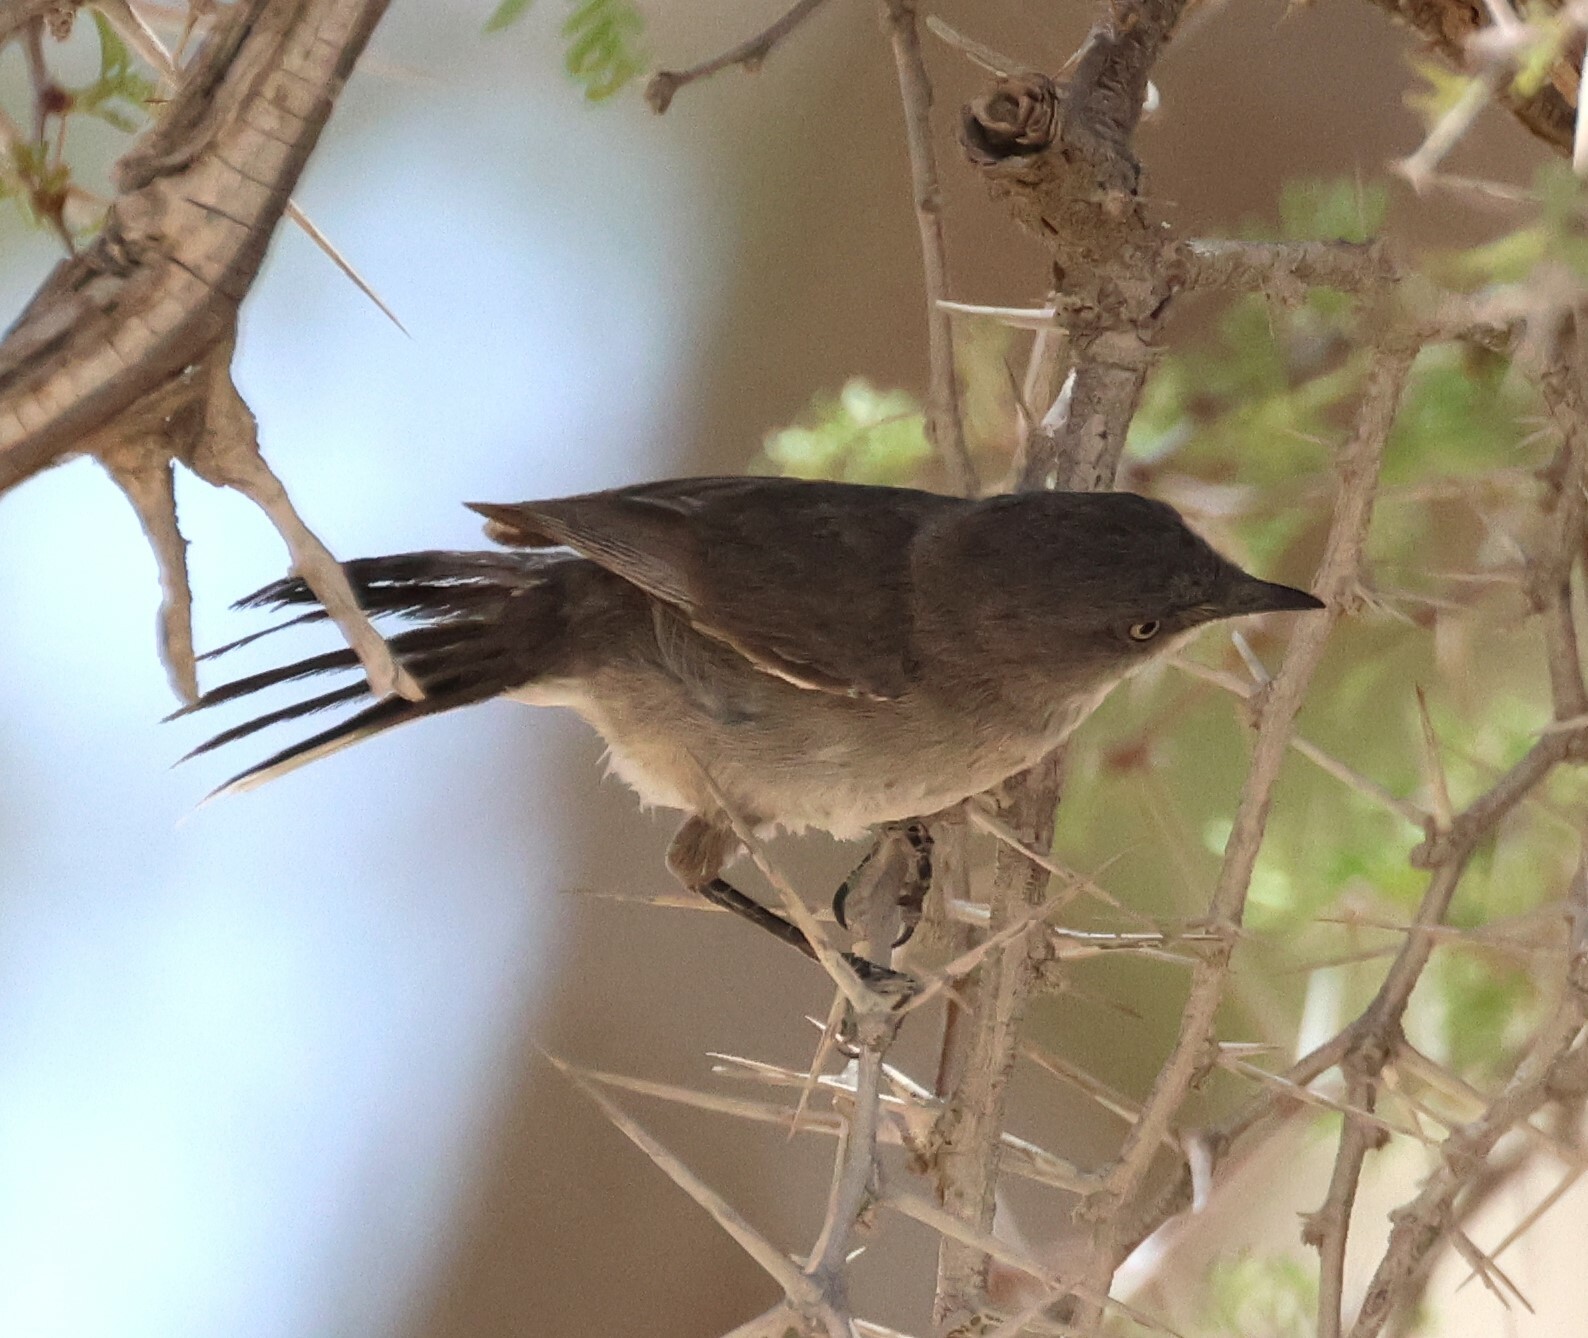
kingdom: Animalia
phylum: Chordata
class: Aves
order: Passeriformes
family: Sylviidae
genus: Sylvia
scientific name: Sylvia layardi
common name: Layard's warbler
